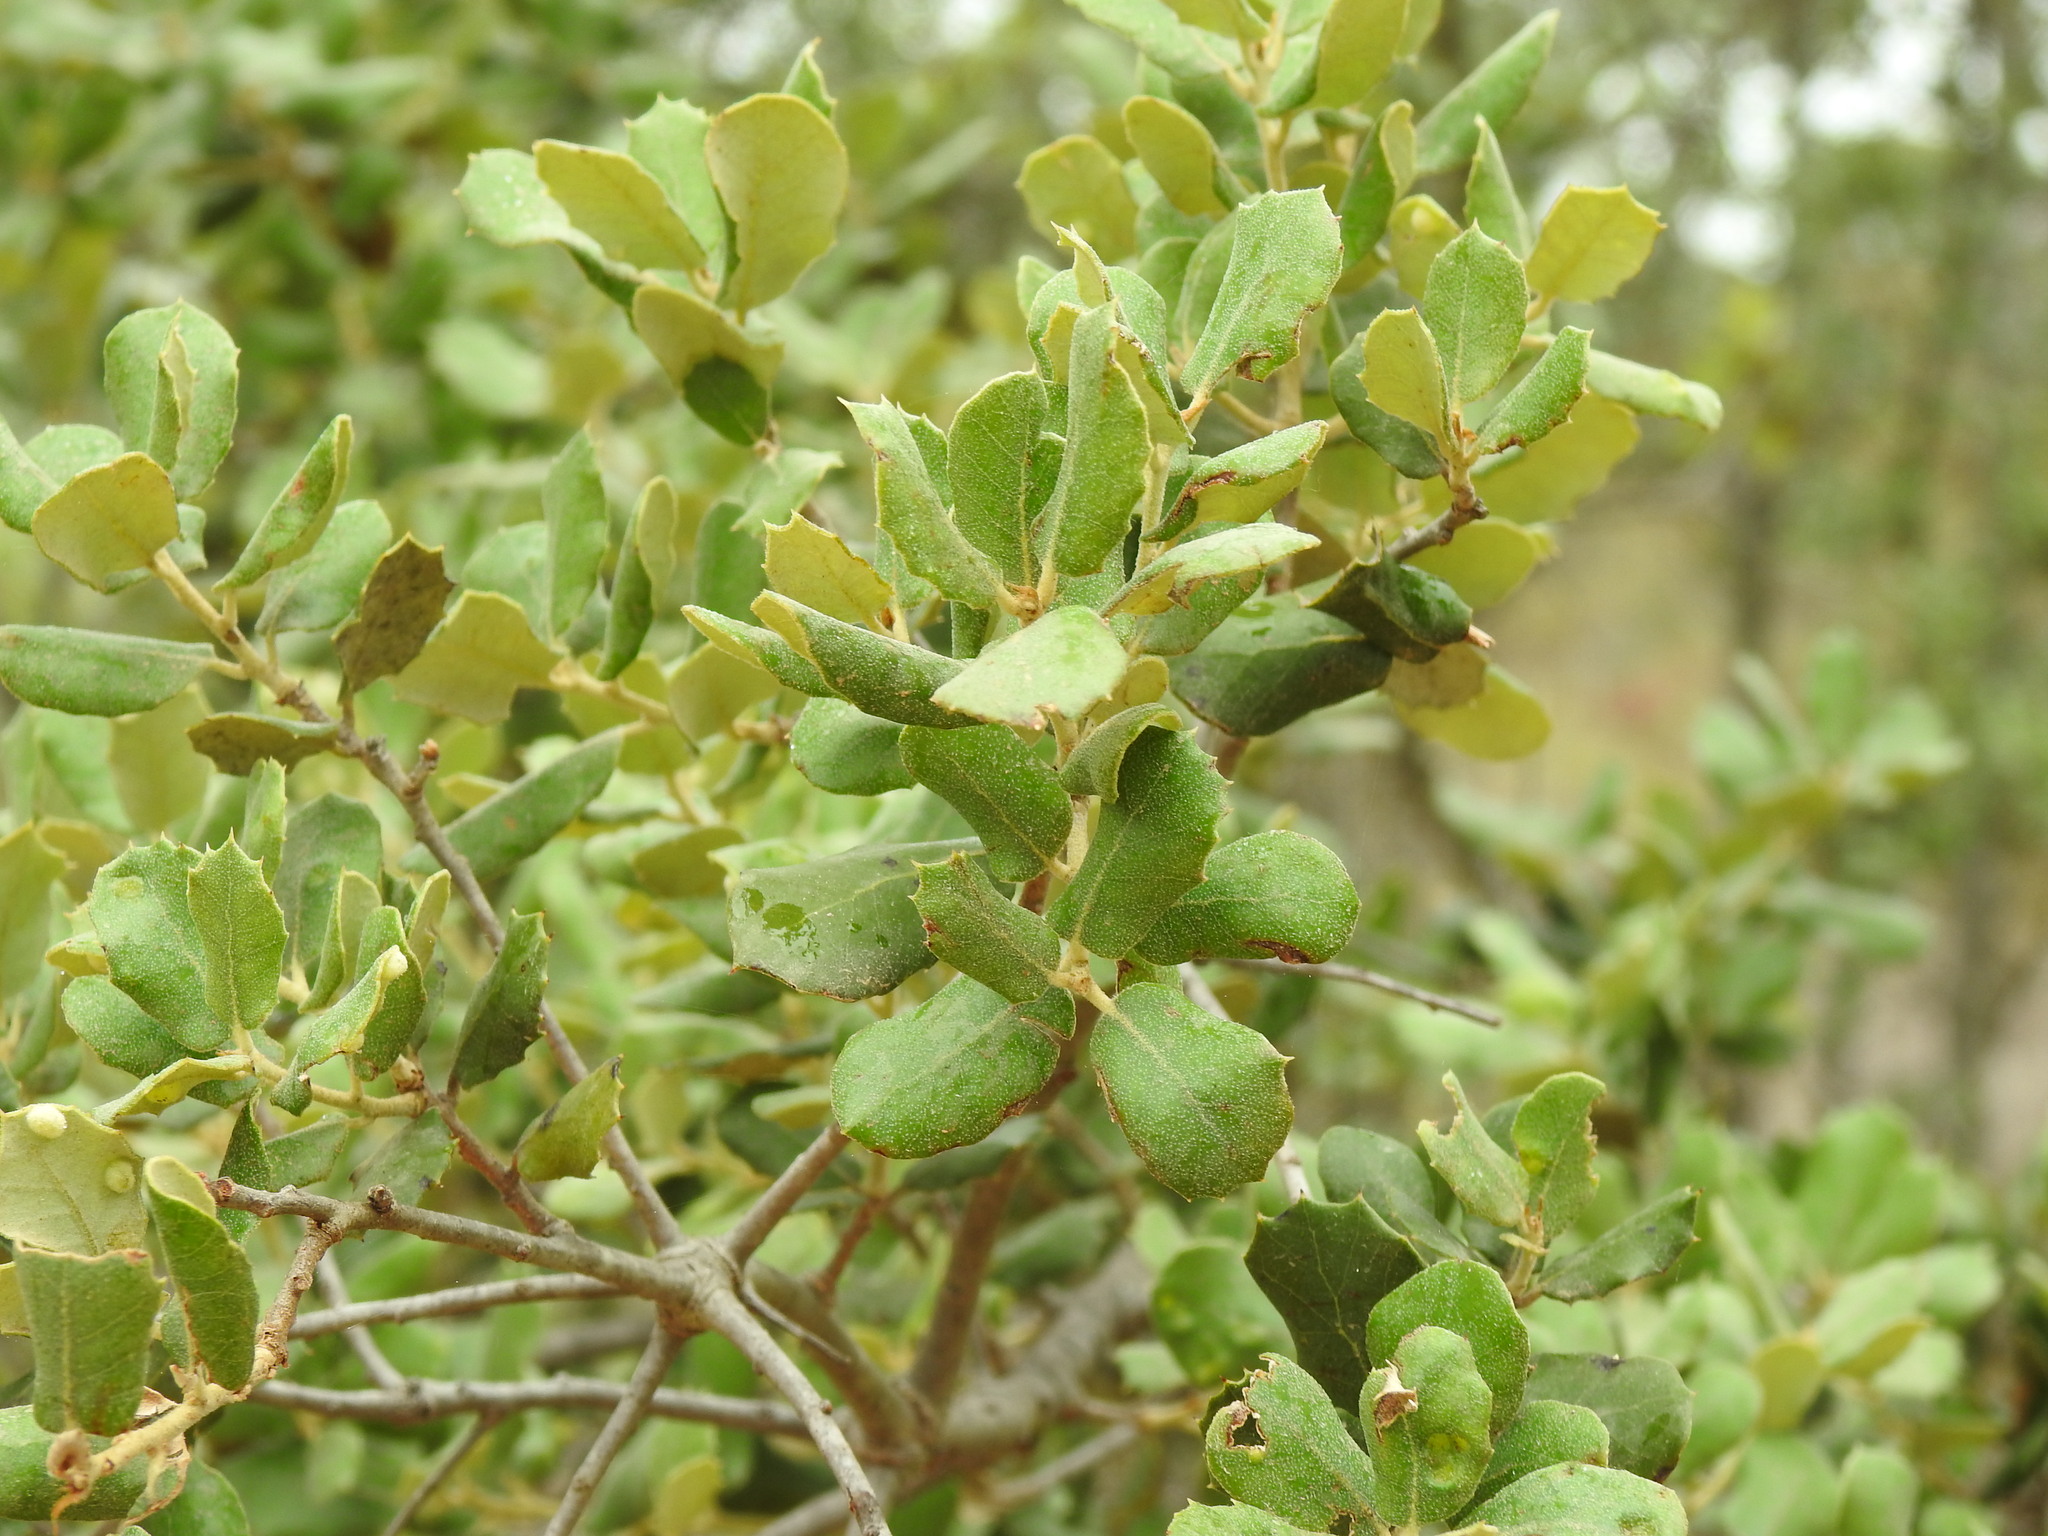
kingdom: Plantae
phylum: Tracheophyta
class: Magnoliopsida
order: Fagales
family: Fagaceae
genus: Quercus
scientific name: Quercus rotundifolia
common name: Holm oak
